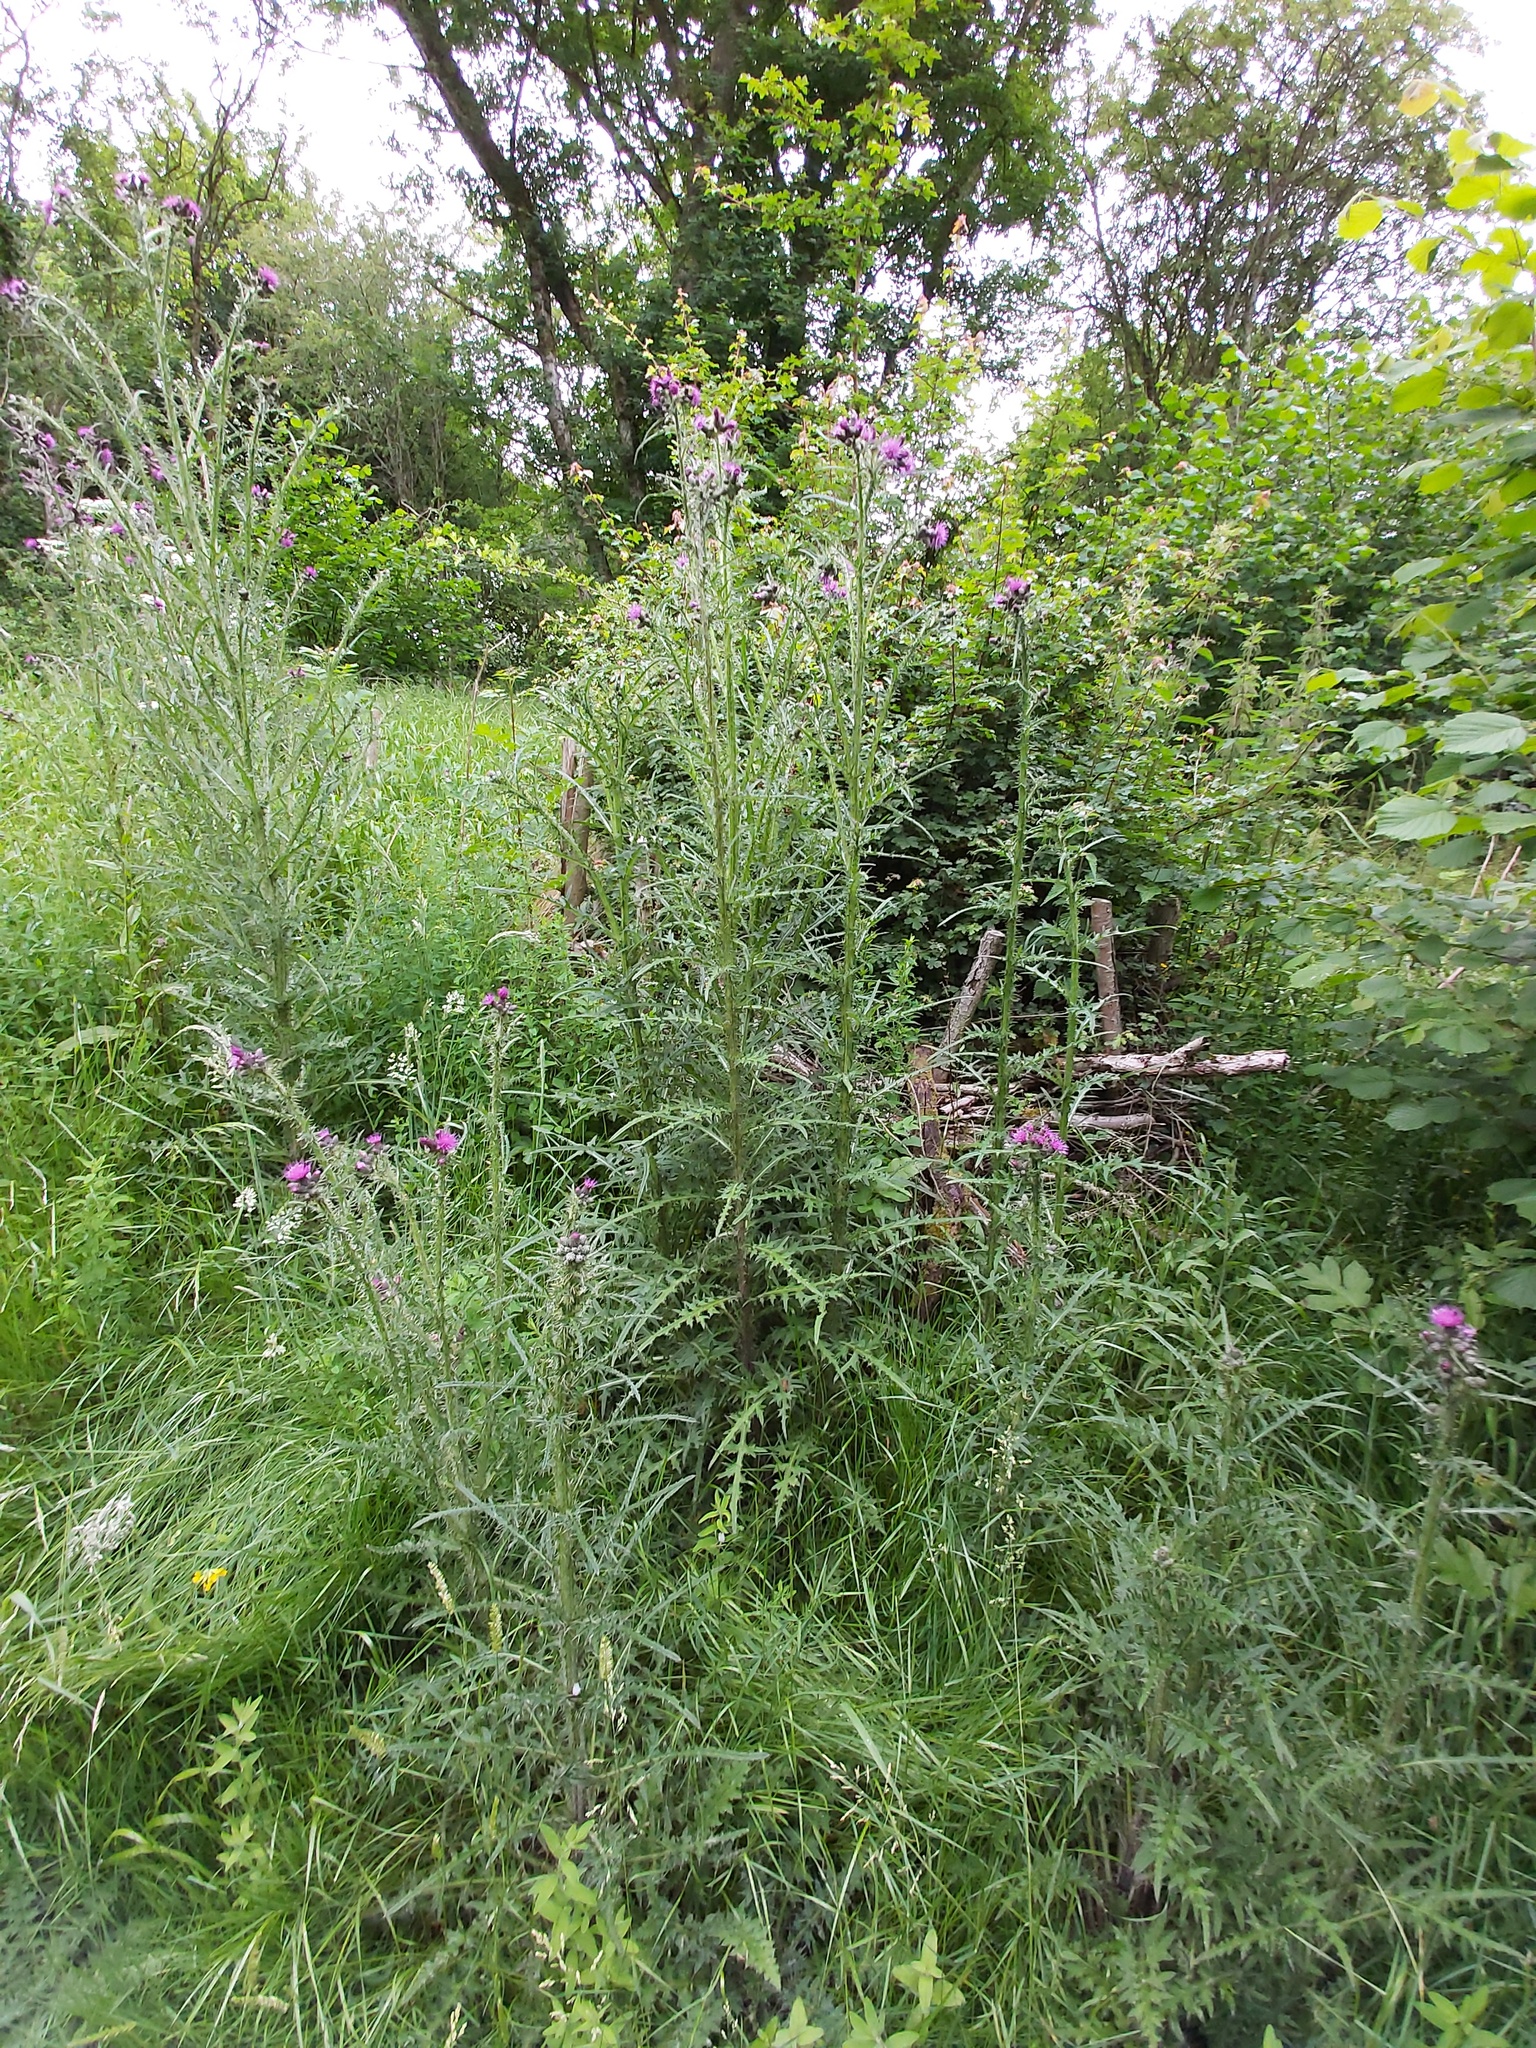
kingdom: Plantae
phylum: Tracheophyta
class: Magnoliopsida
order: Asterales
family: Asteraceae
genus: Cirsium
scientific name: Cirsium palustre
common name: Marsh thistle
